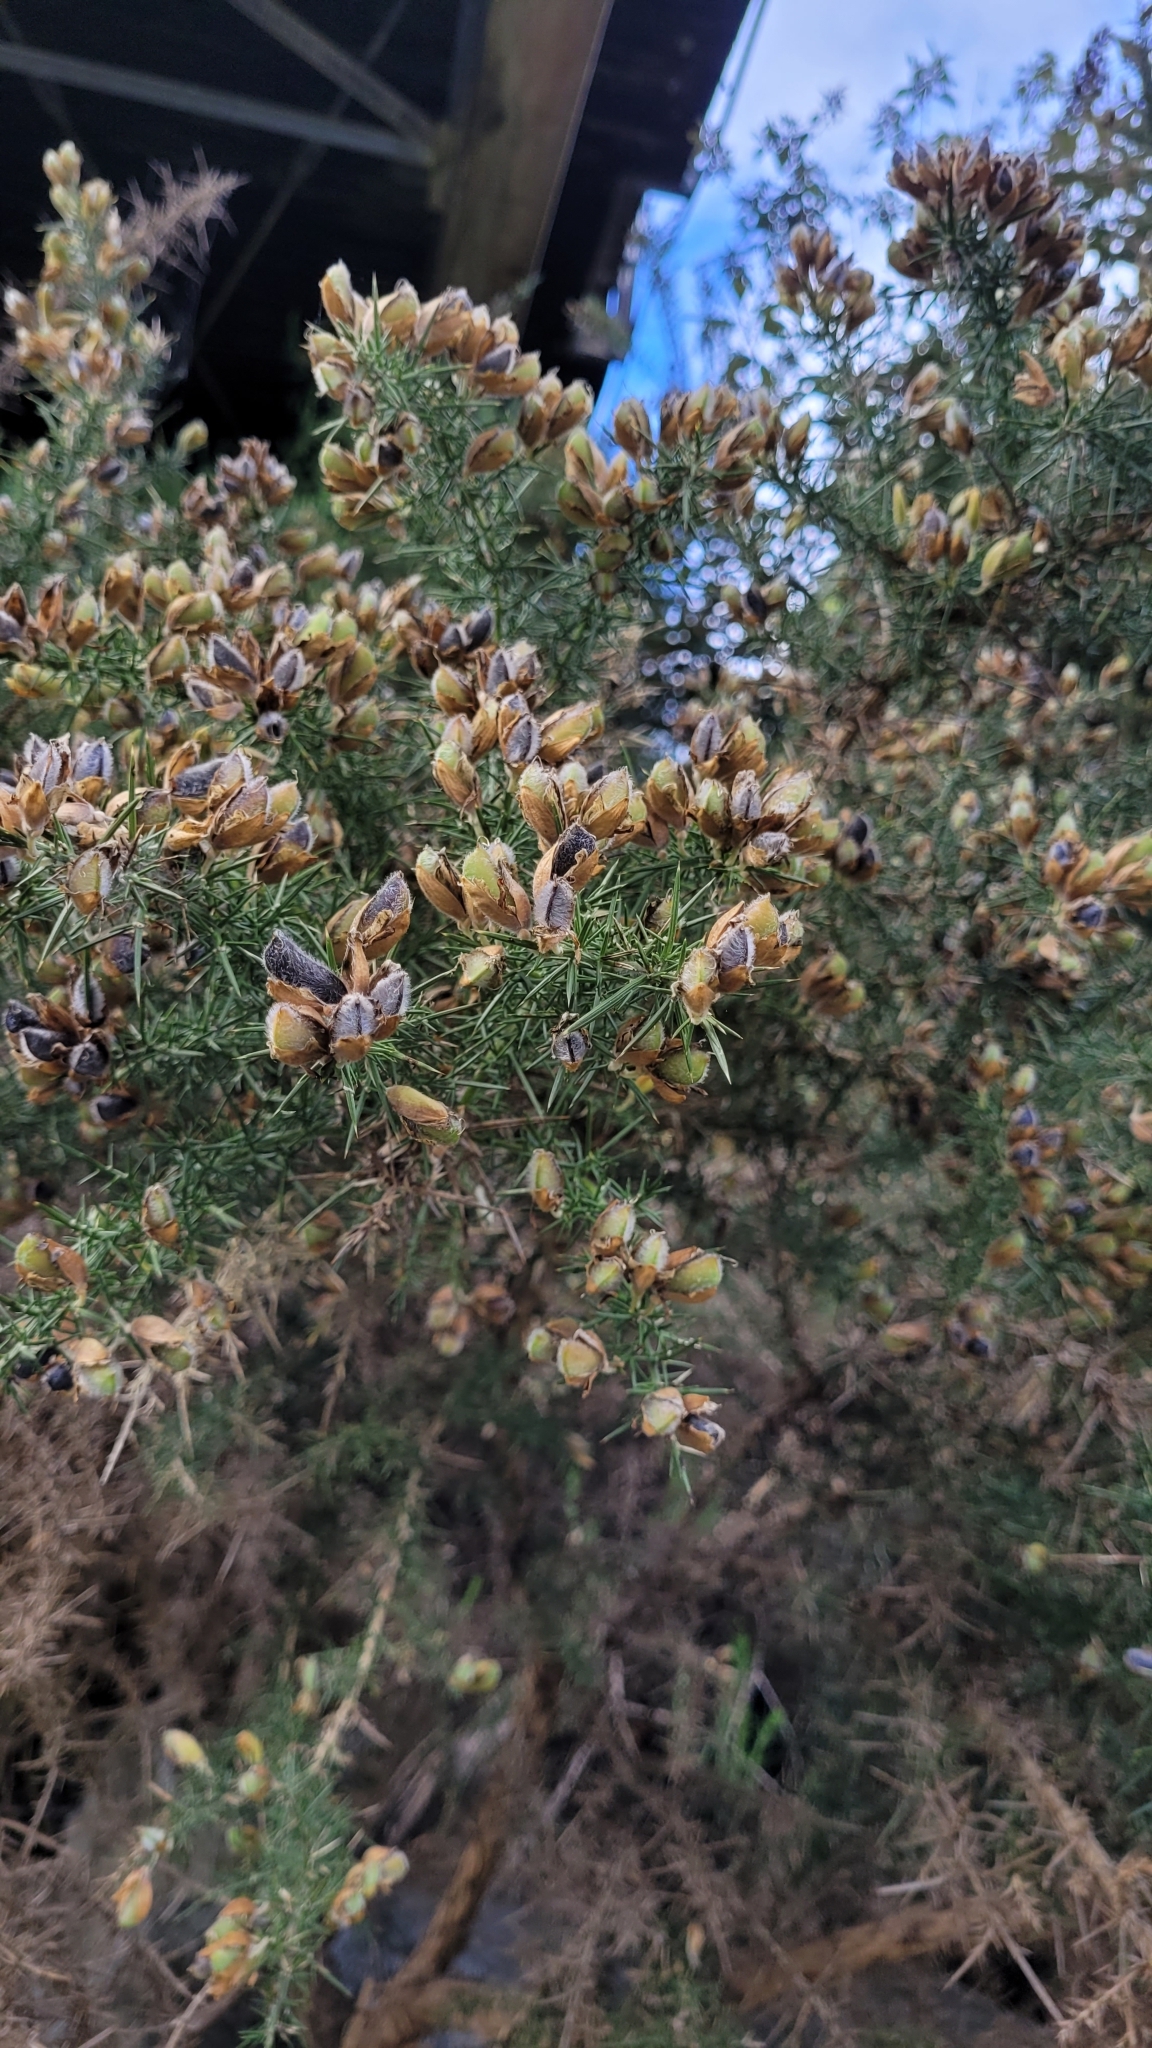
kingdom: Plantae
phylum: Tracheophyta
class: Magnoliopsida
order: Fabales
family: Fabaceae
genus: Ulex
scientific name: Ulex europaeus
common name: Common gorse
